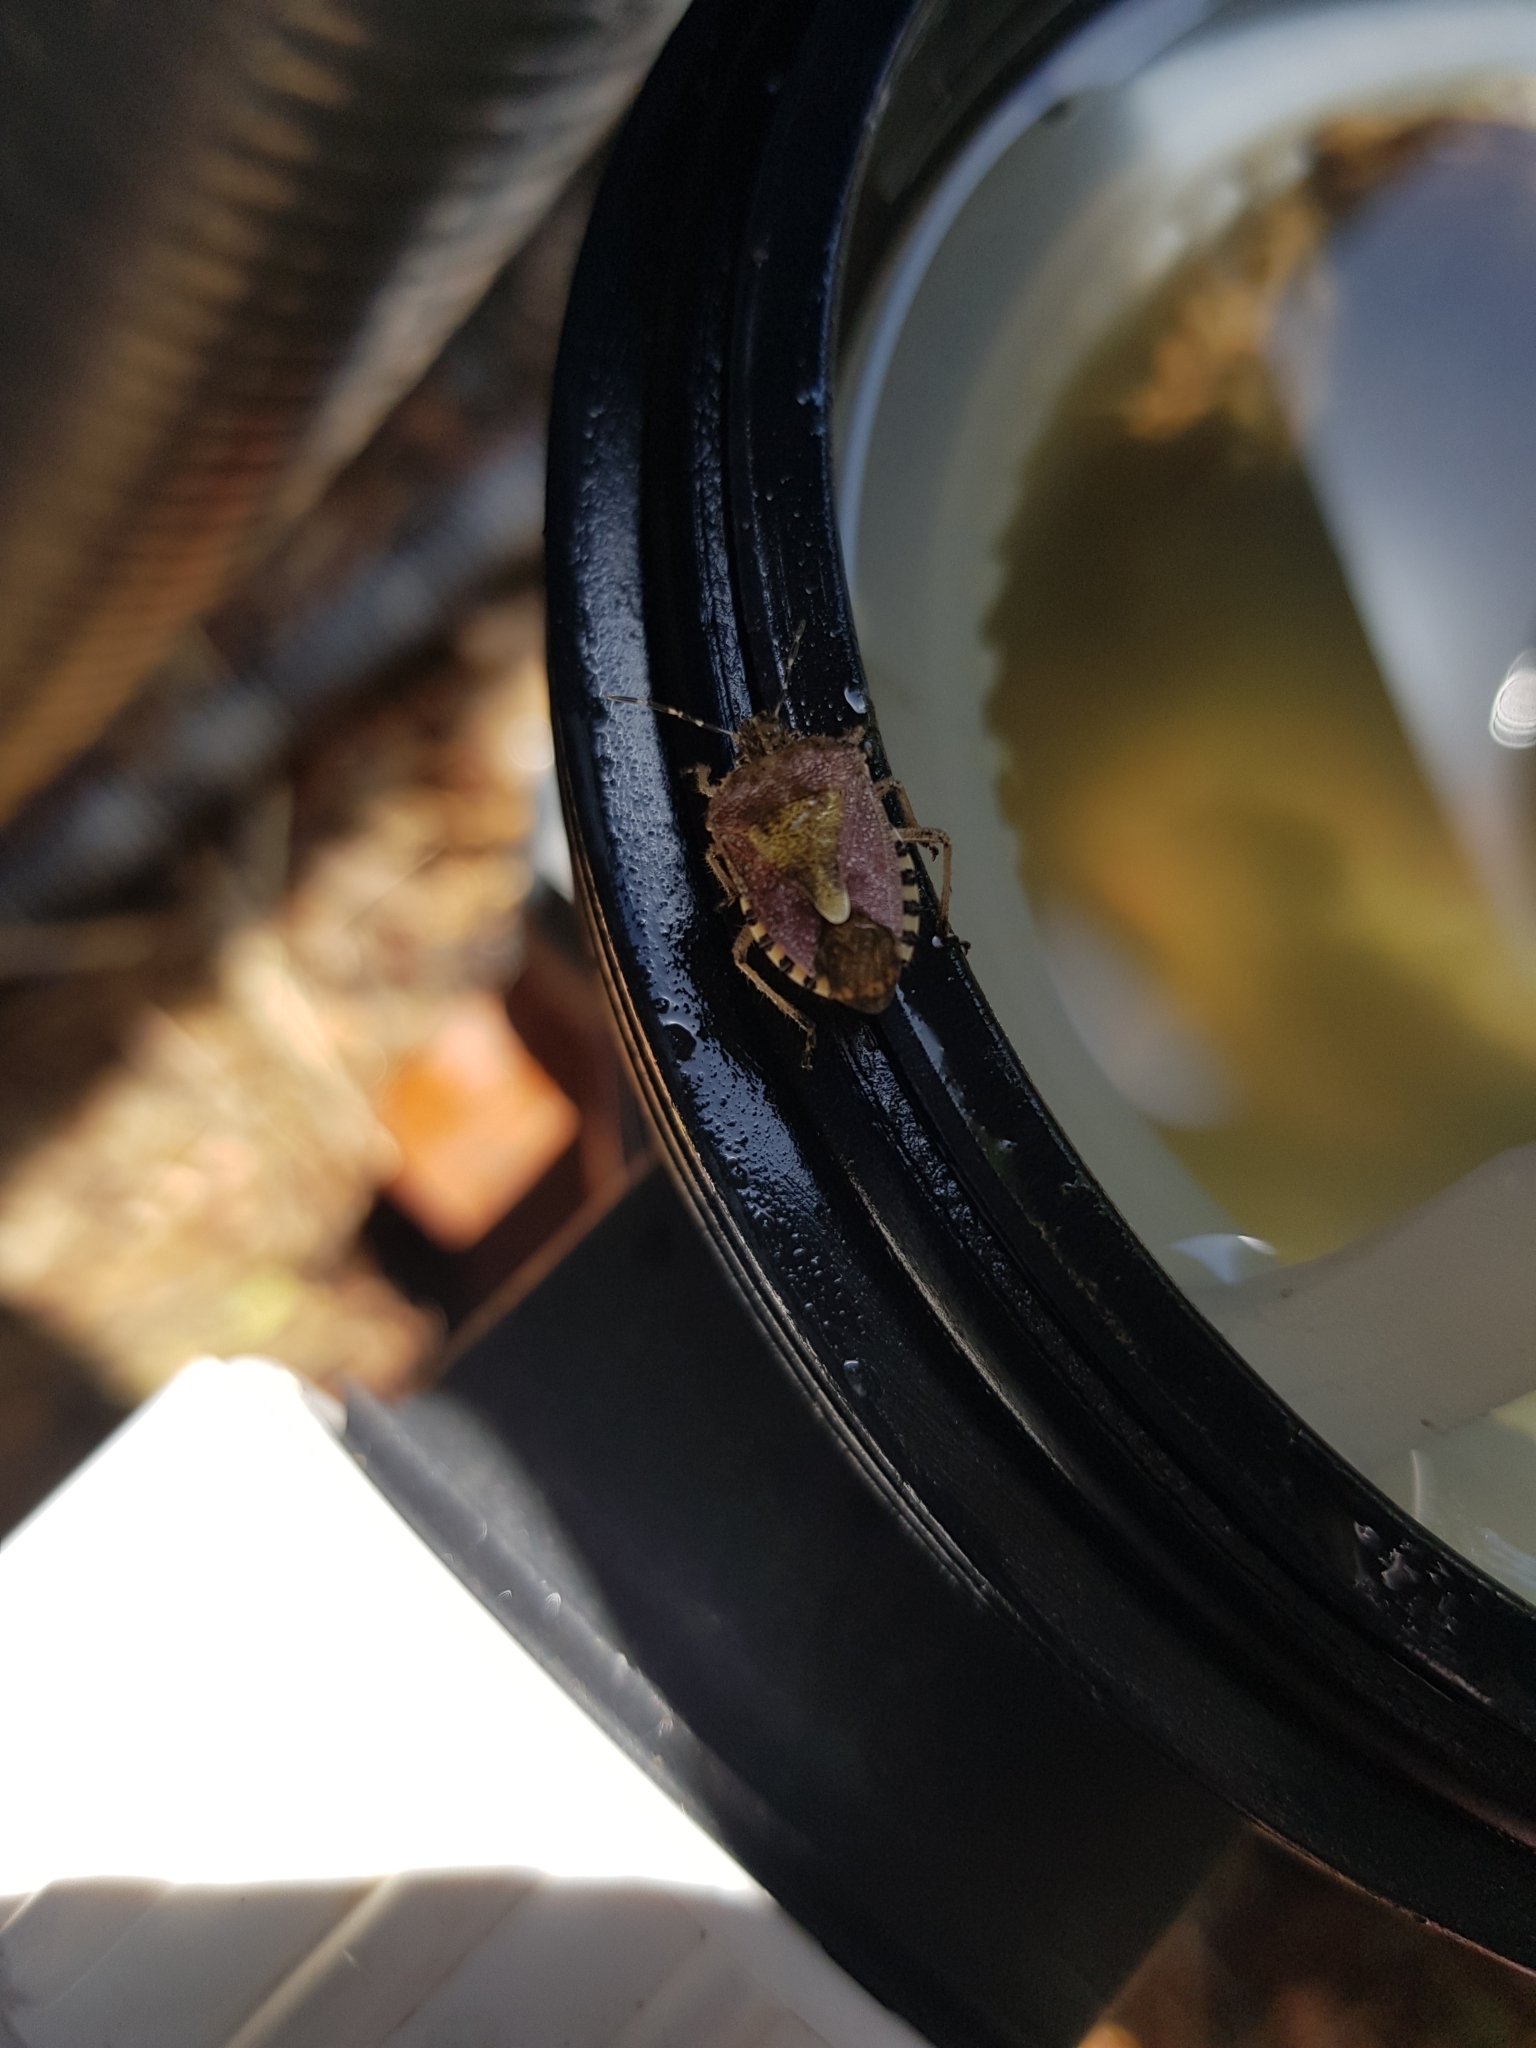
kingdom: Animalia
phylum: Arthropoda
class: Insecta
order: Hemiptera
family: Pentatomidae
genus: Dolycoris
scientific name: Dolycoris baccarum
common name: Sloe bug
